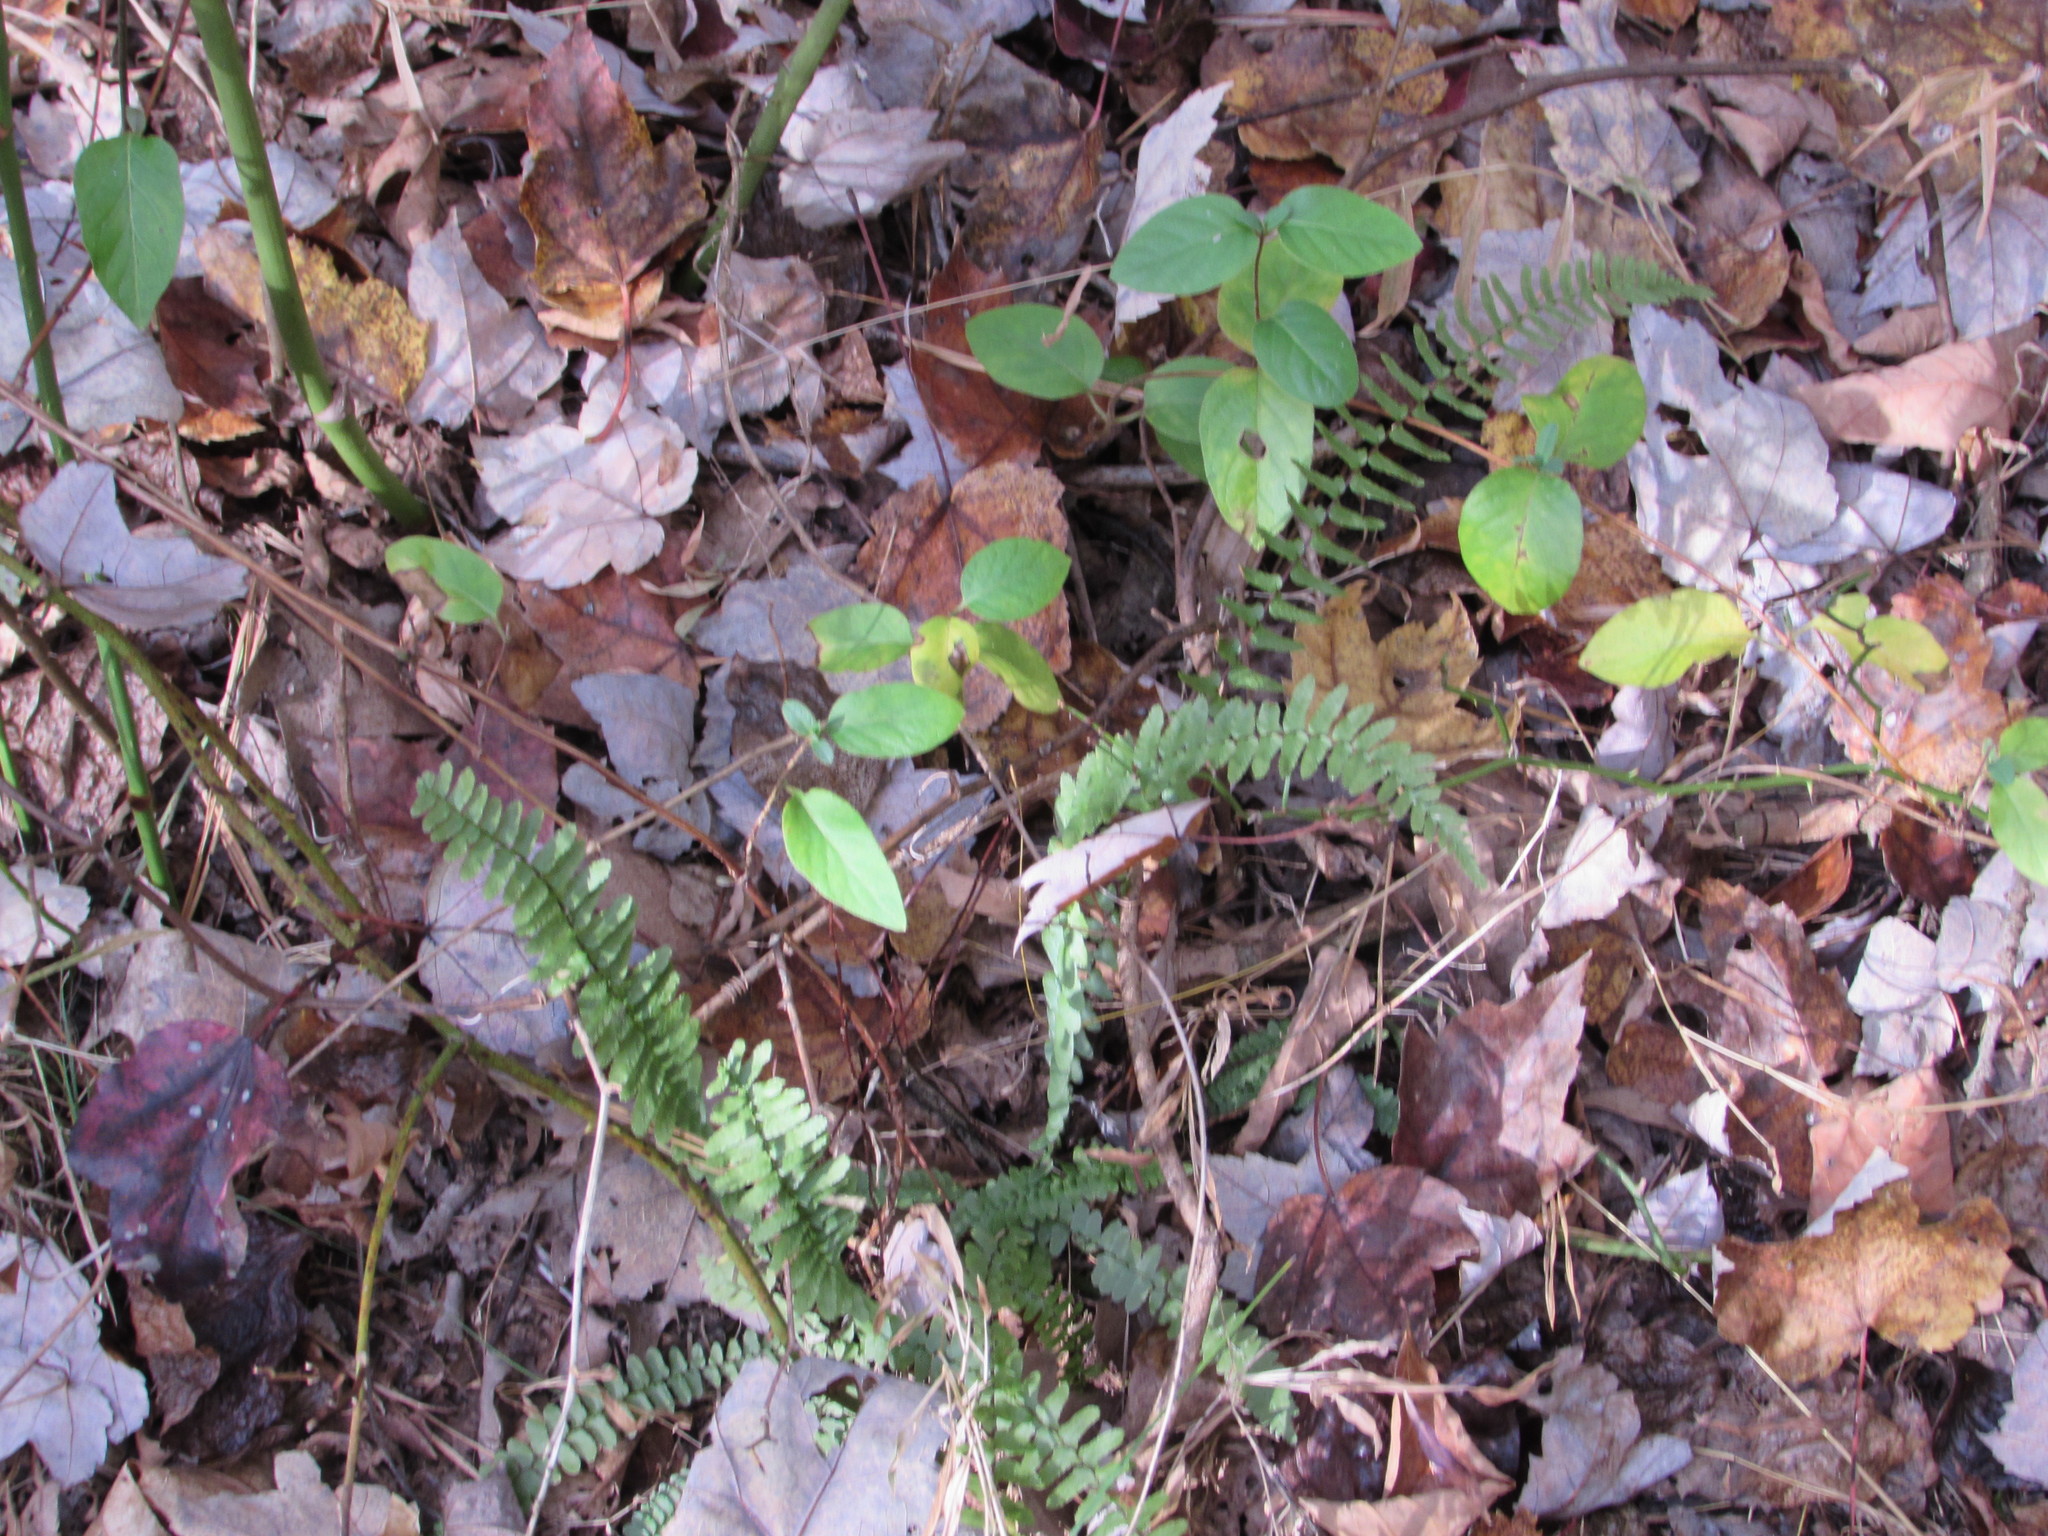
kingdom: Plantae
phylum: Tracheophyta
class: Polypodiopsida
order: Polypodiales
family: Aspleniaceae
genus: Asplenium
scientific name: Asplenium platyneuron
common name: Ebony spleenwort
